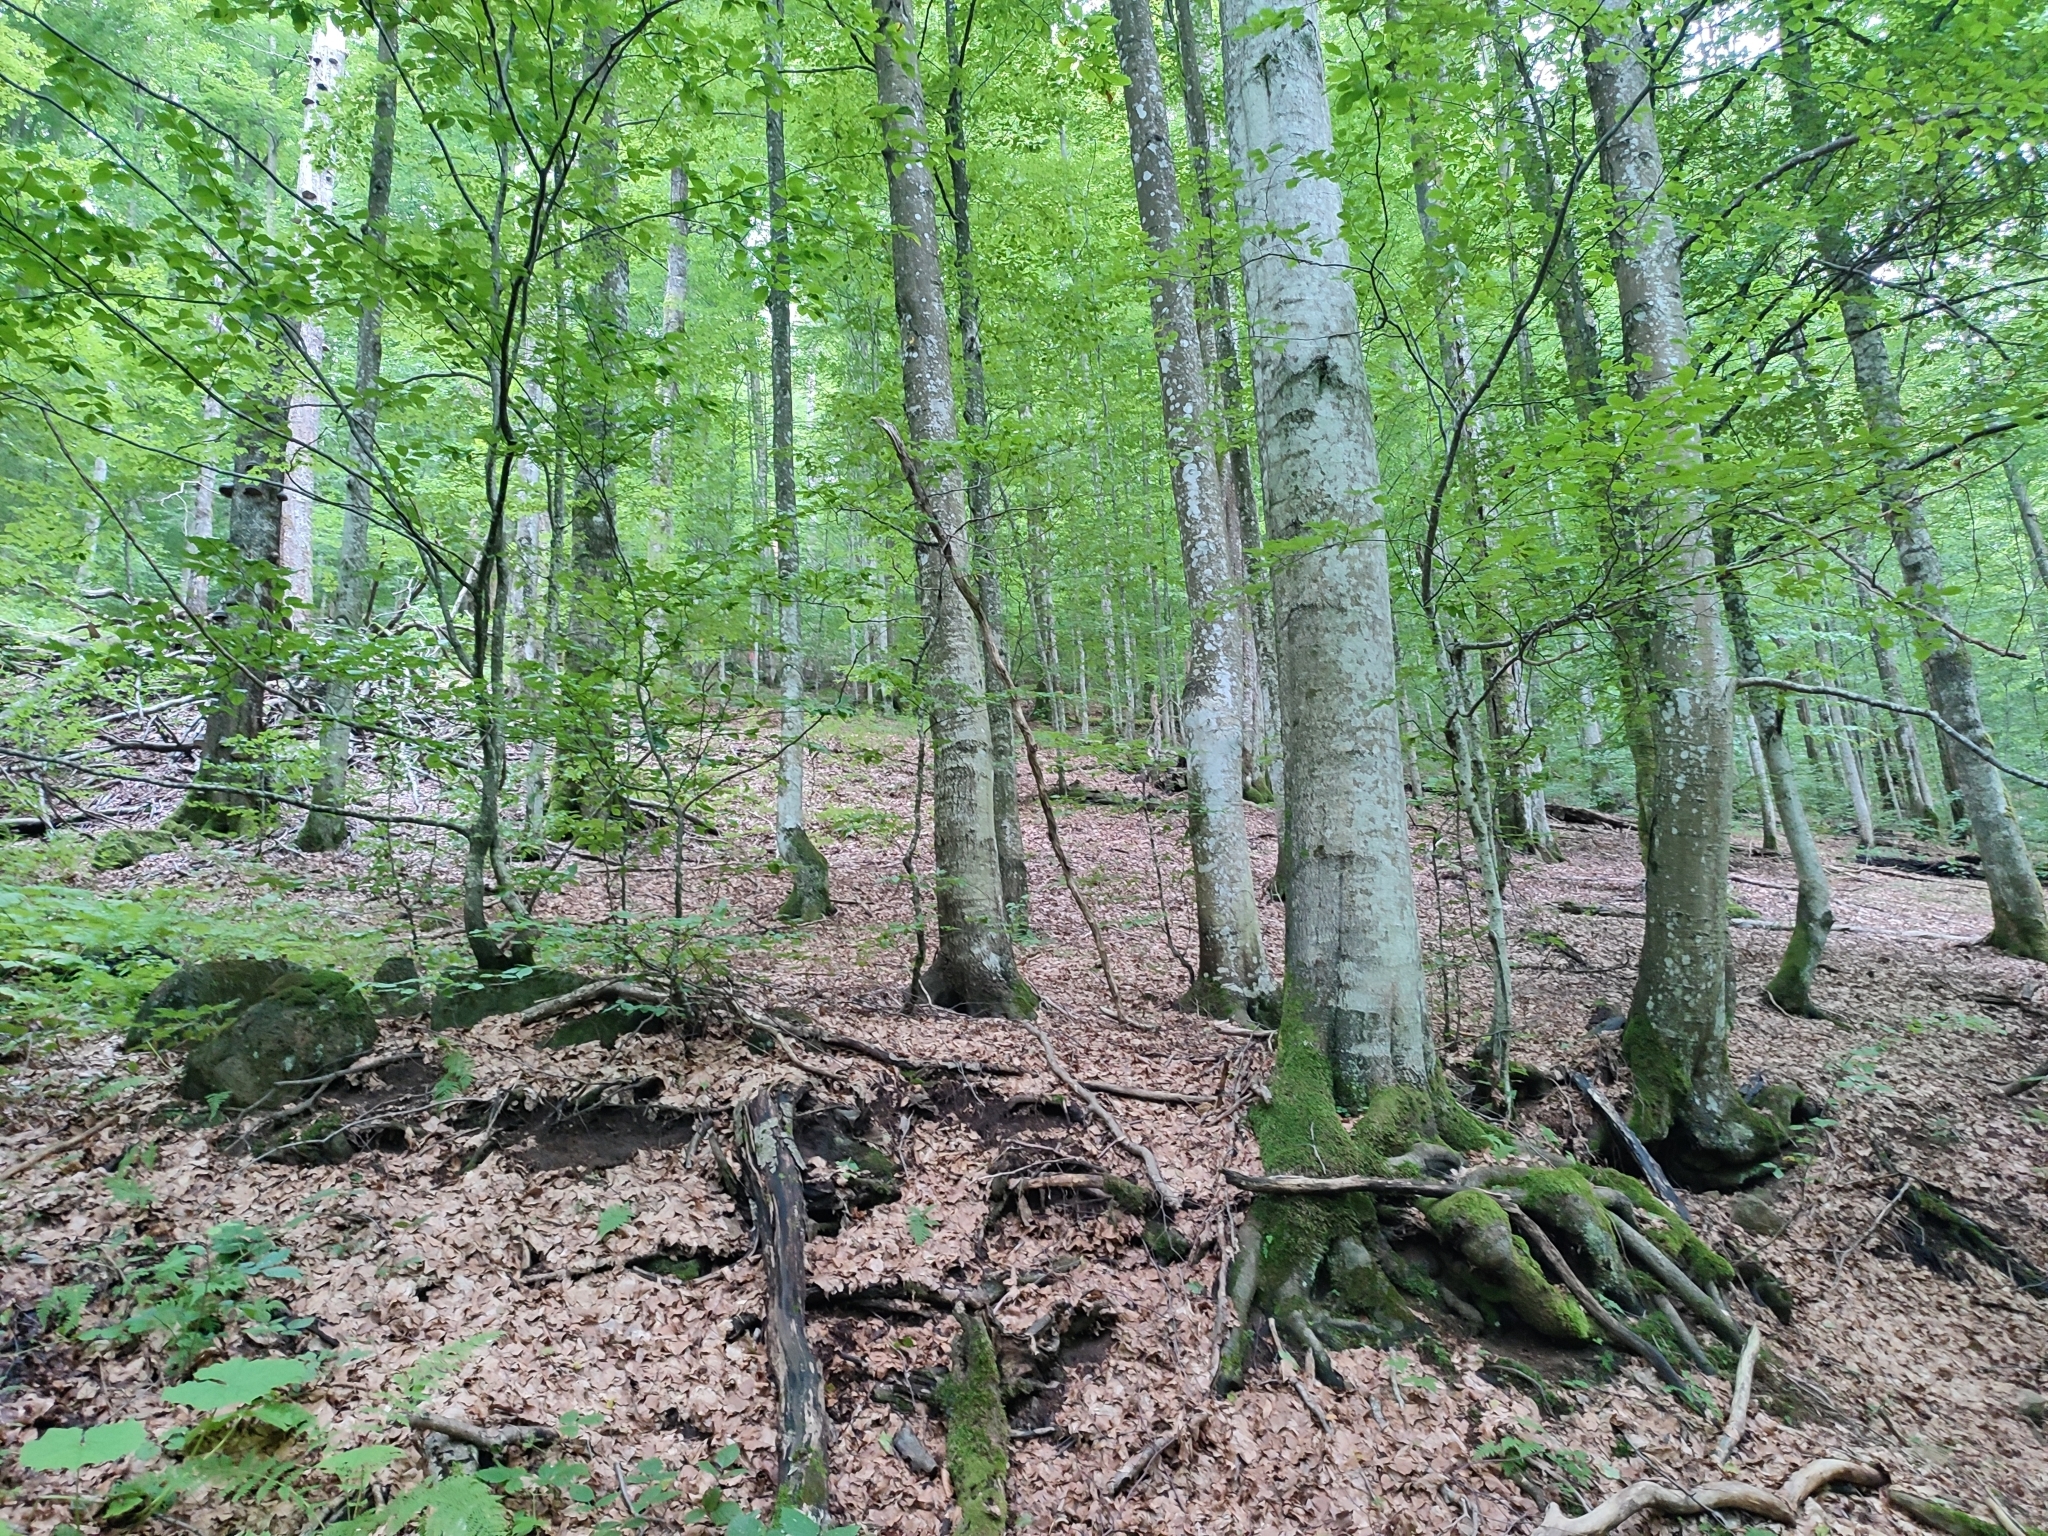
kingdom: Plantae
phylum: Tracheophyta
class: Magnoliopsida
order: Fagales
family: Fagaceae
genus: Fagus
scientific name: Fagus sylvatica
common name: Beech
